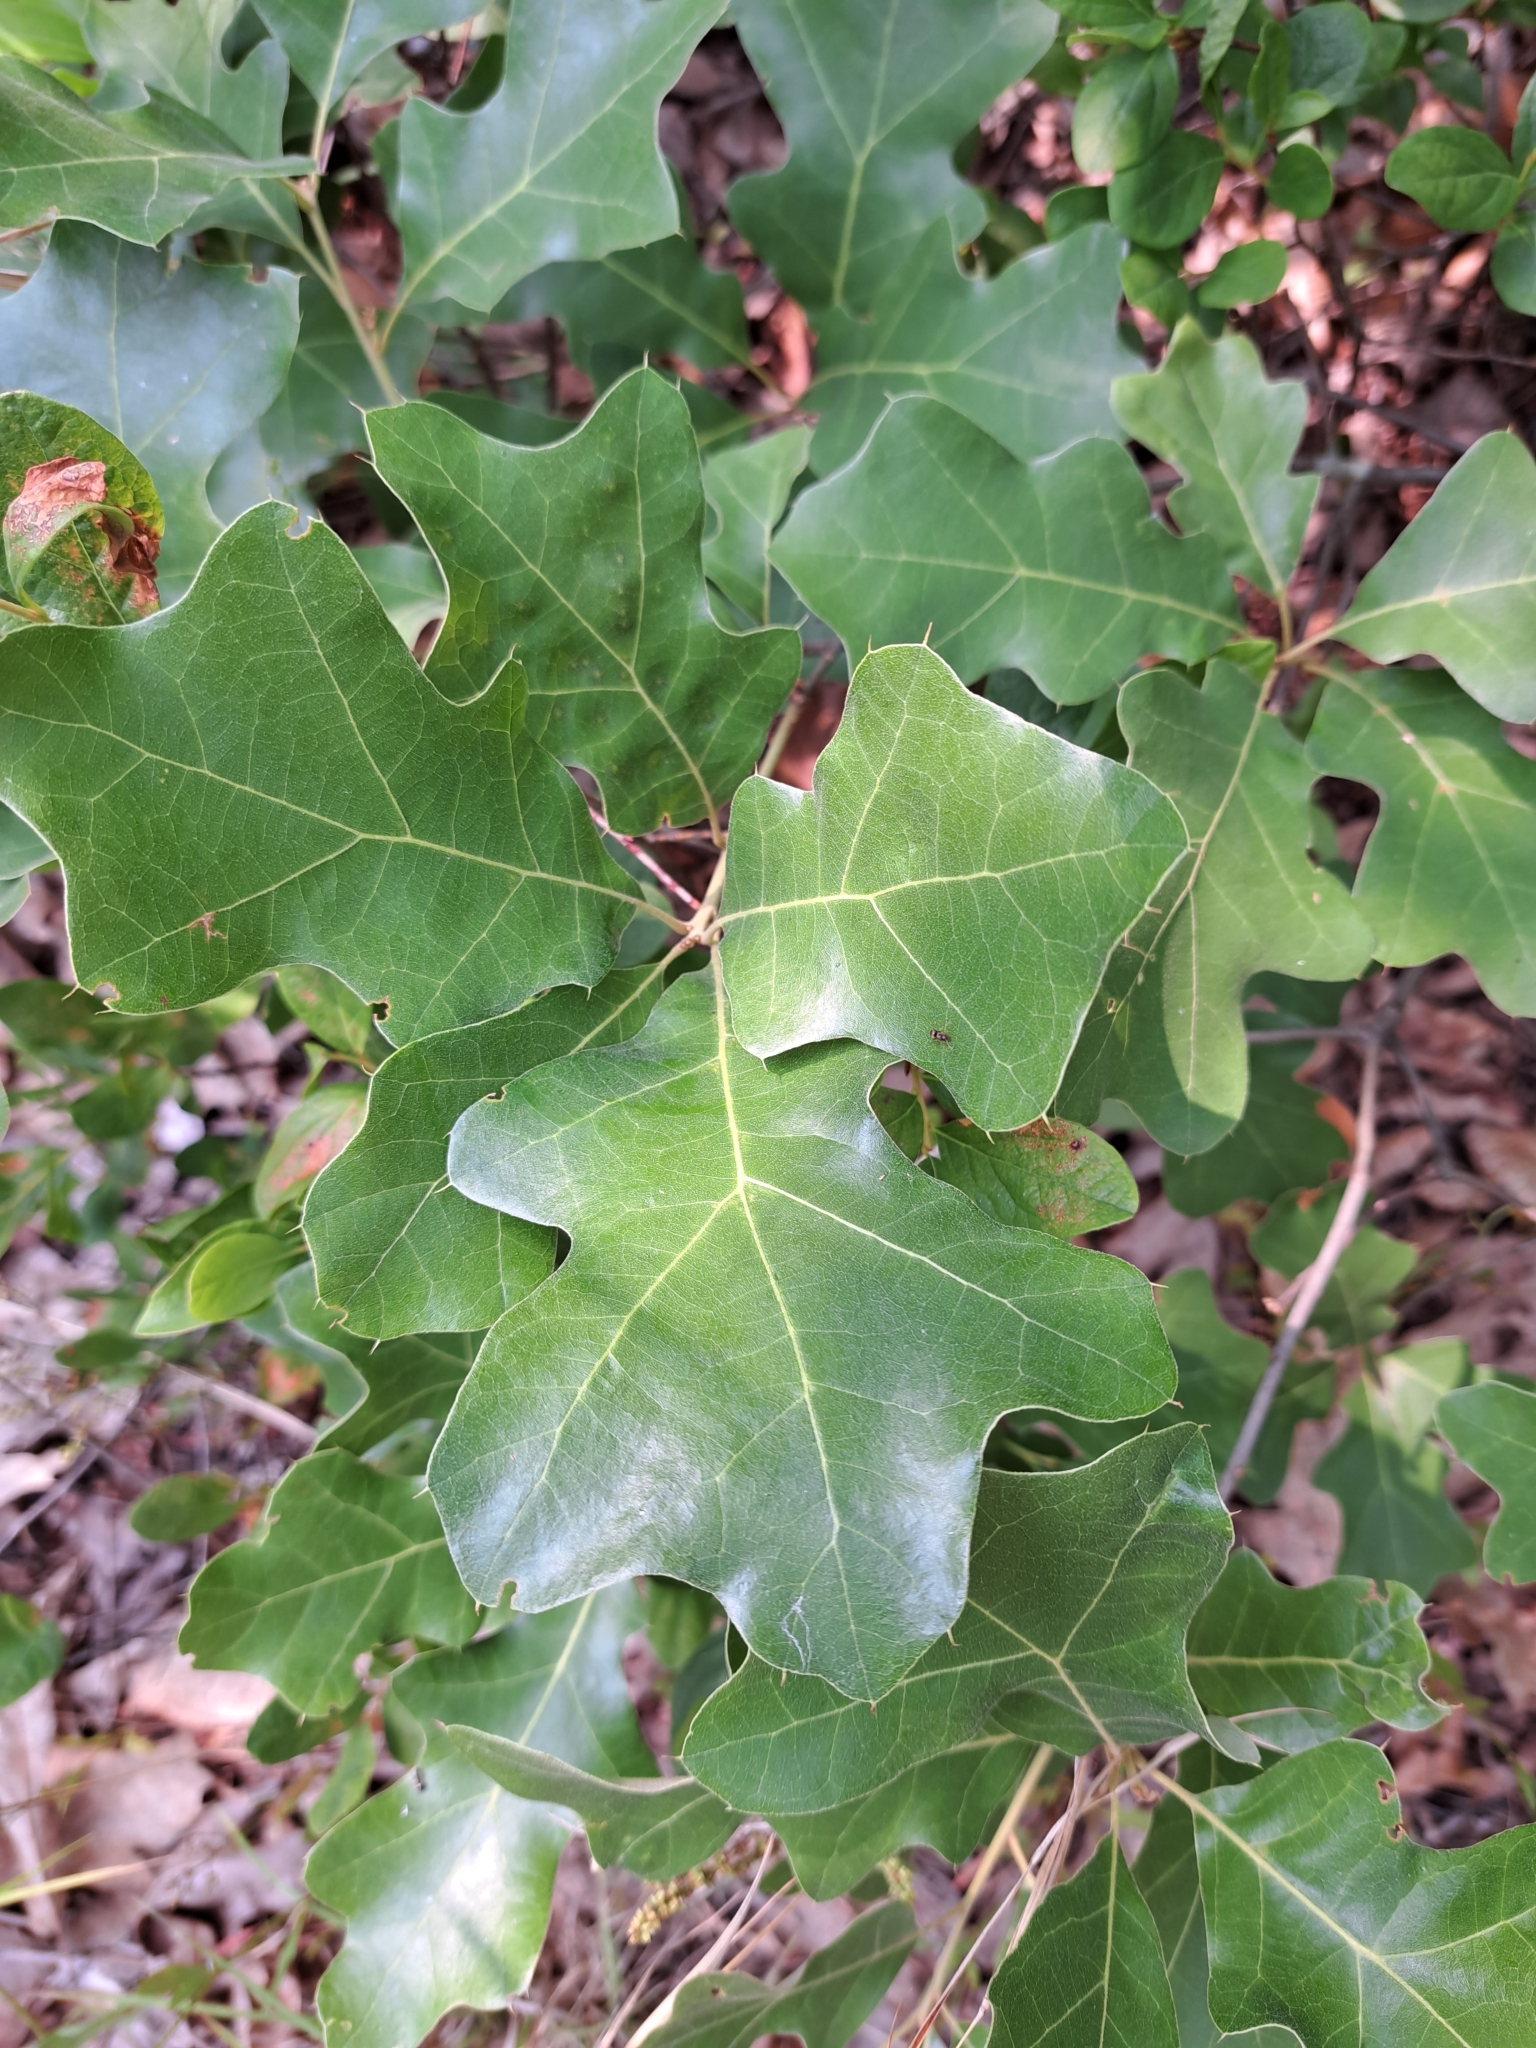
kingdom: Plantae
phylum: Tracheophyta
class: Magnoliopsida
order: Fagales
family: Fagaceae
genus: Quercus
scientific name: Quercus ilicifolia
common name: Bear oak
